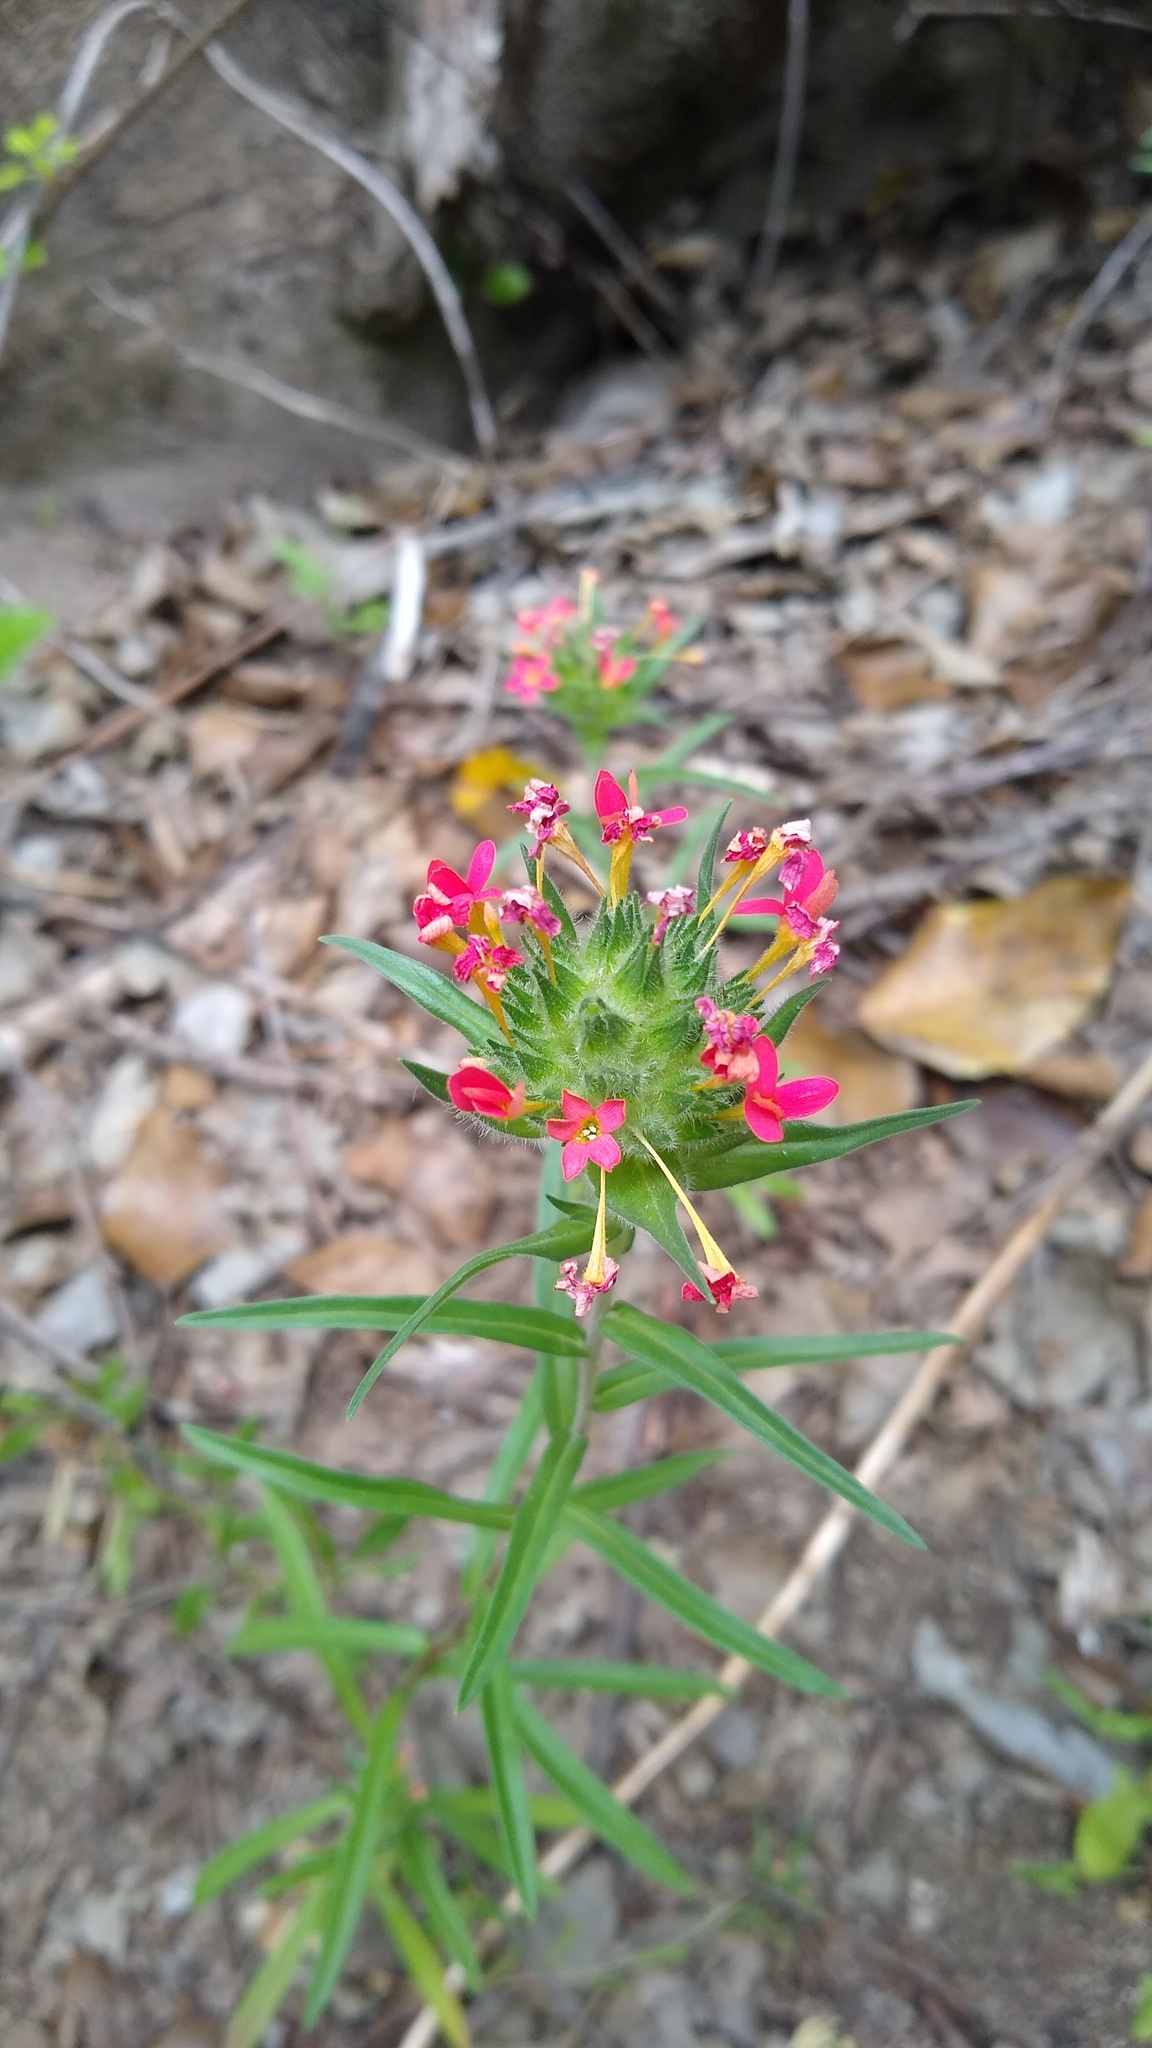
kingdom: Plantae
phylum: Tracheophyta
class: Magnoliopsida
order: Ericales
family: Polemoniaceae
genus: Collomia
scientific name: Collomia biflora
